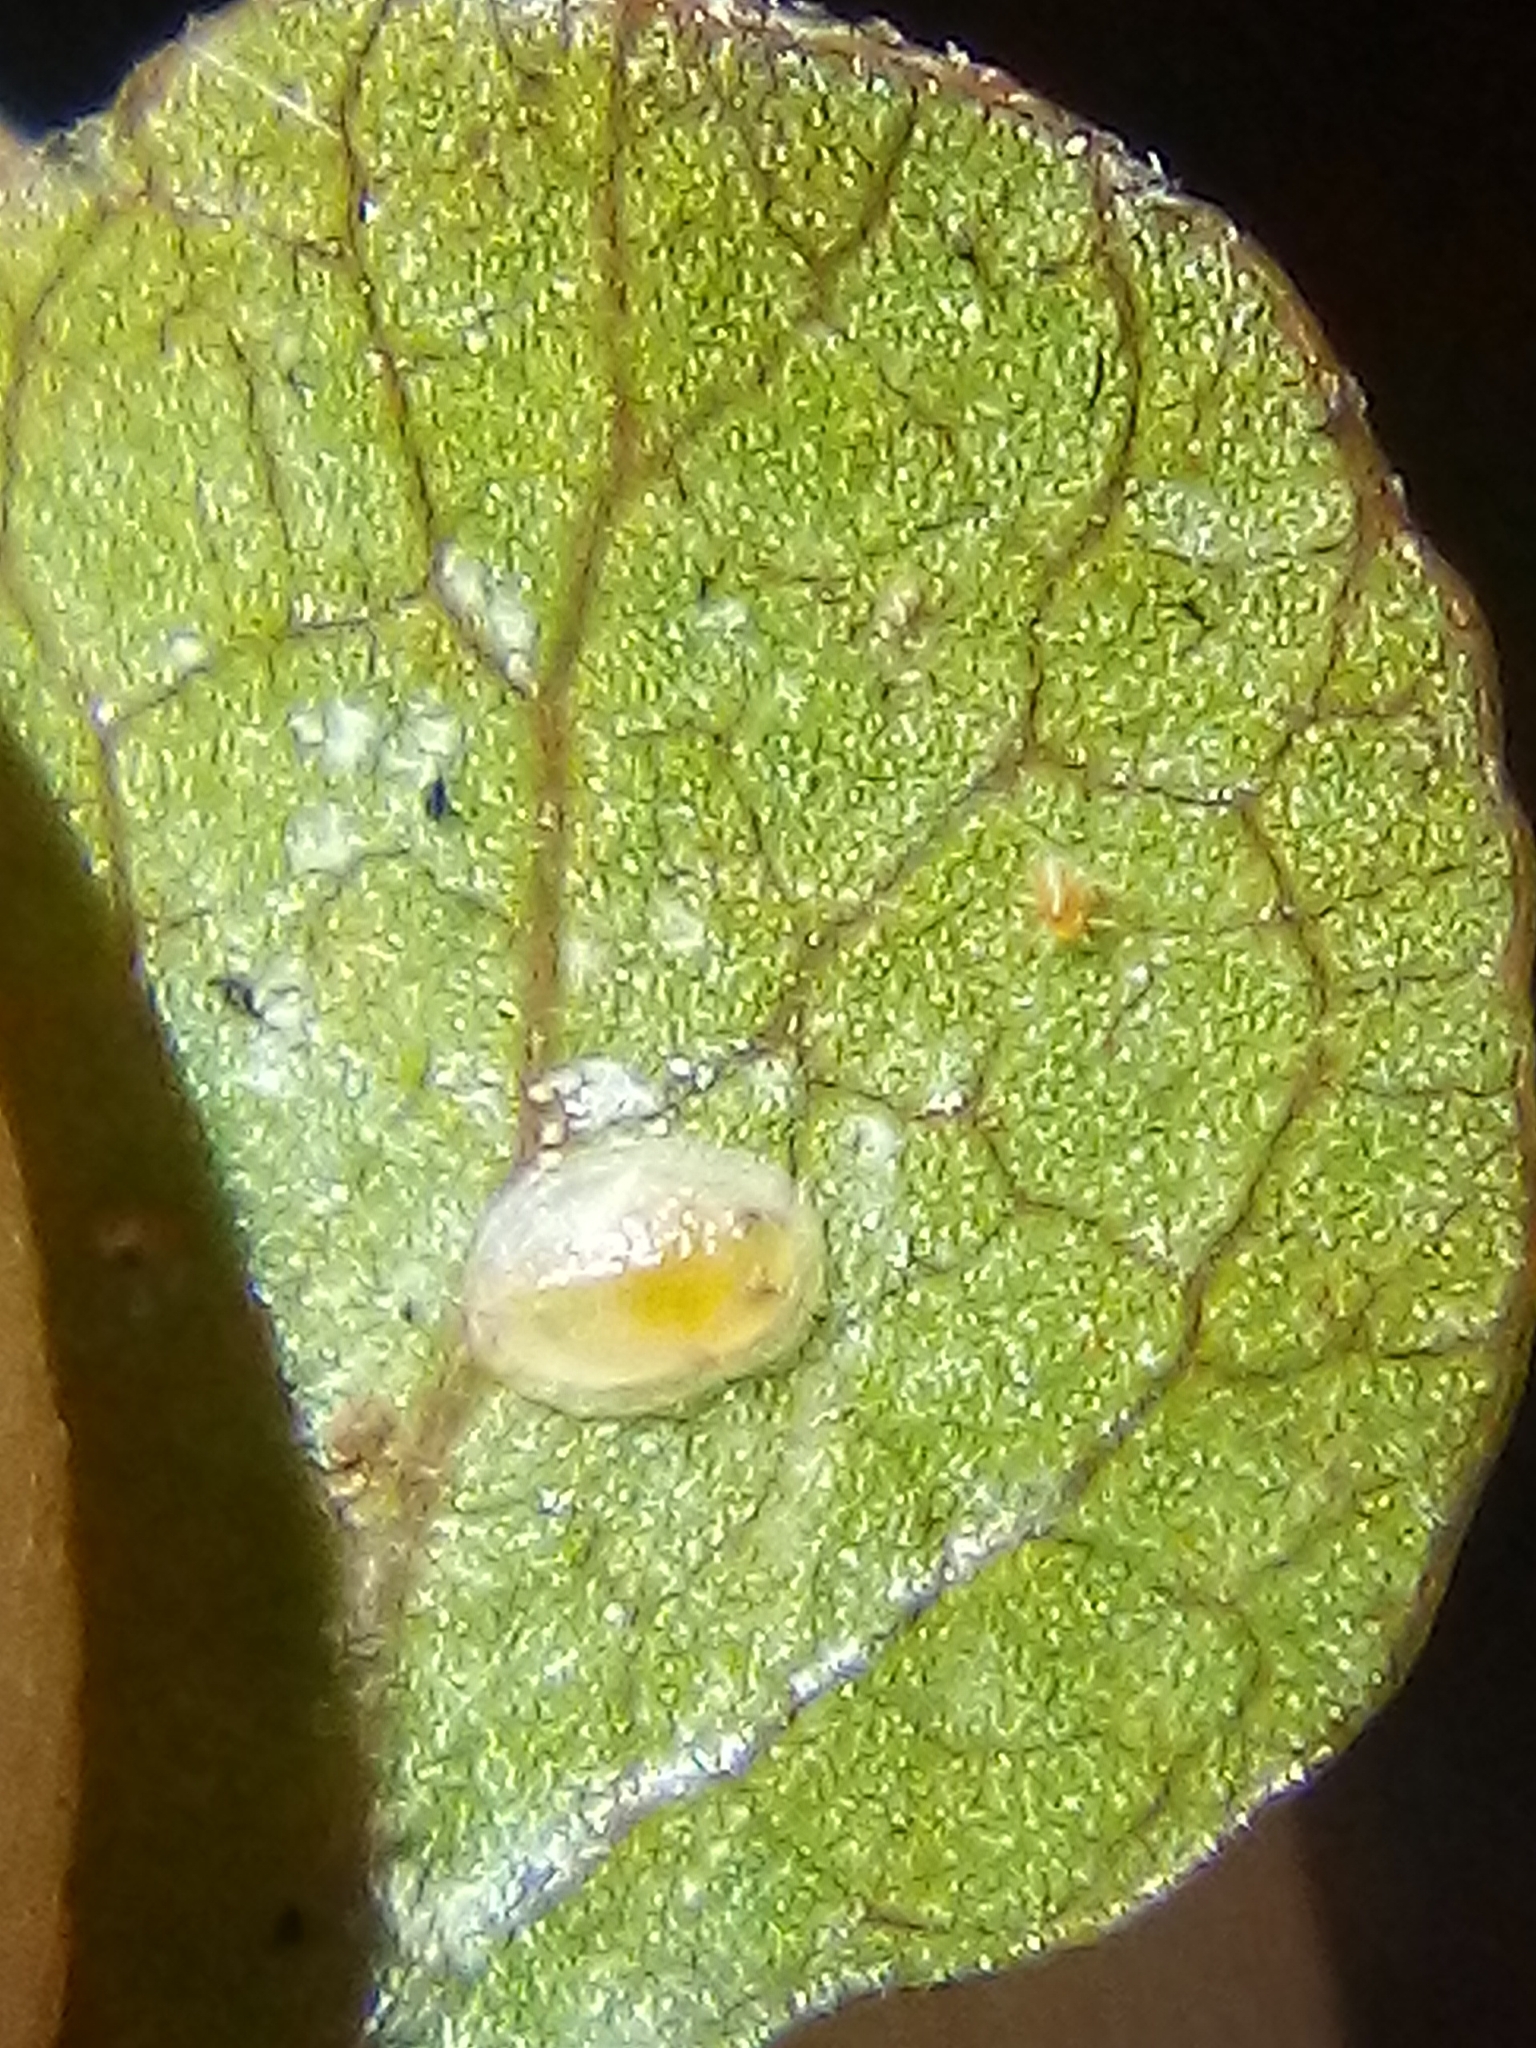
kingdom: Animalia
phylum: Arthropoda
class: Insecta
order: Hemiptera
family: Aleyrodidae
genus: Asterochiton
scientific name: Asterochiton rhamnoidis
